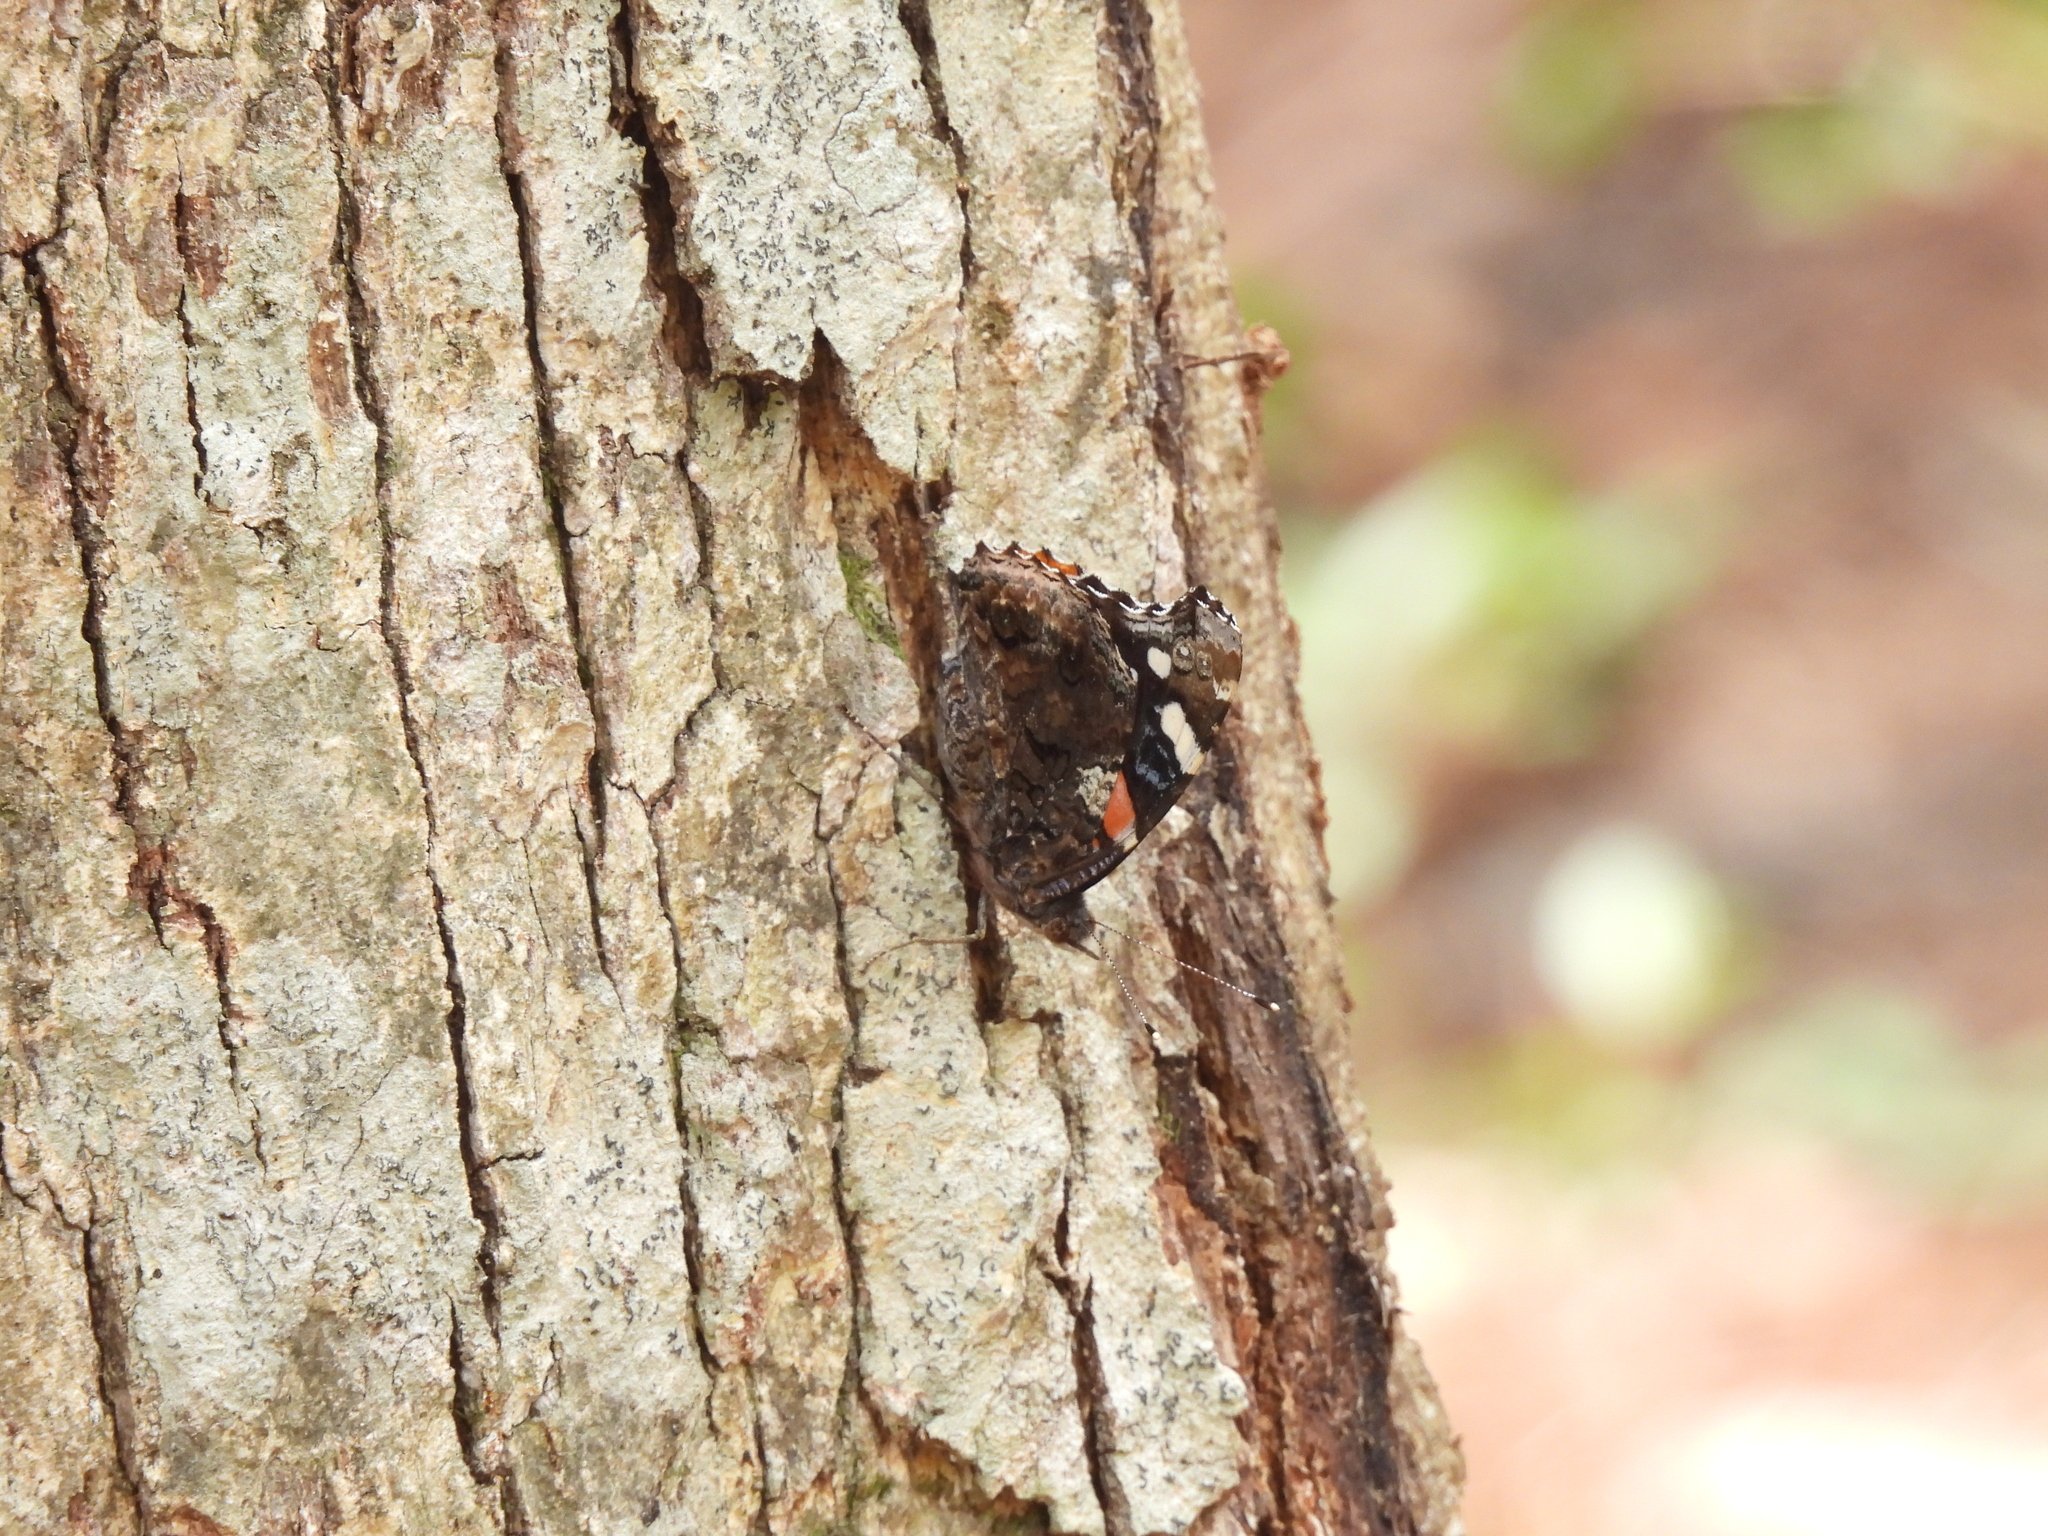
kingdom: Animalia
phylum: Arthropoda
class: Insecta
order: Lepidoptera
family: Nymphalidae
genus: Vanessa
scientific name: Vanessa atalanta
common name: Red admiral
